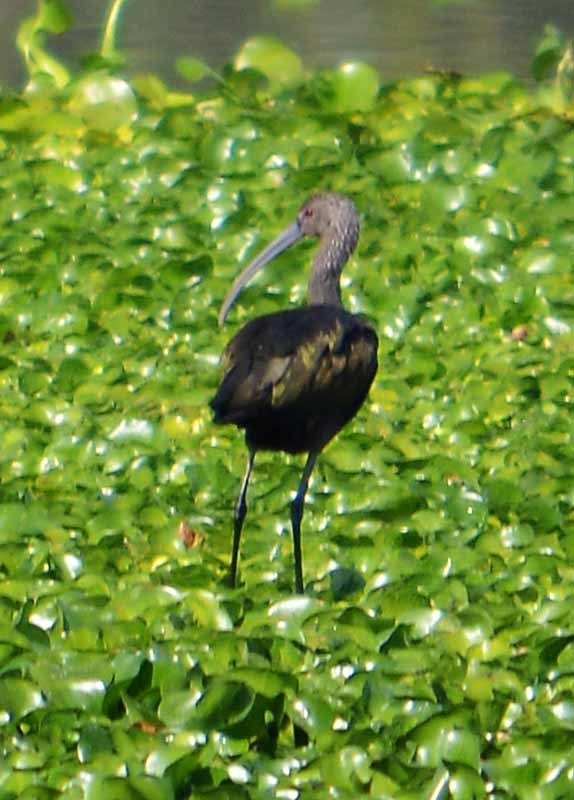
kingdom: Animalia
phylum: Chordata
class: Aves
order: Pelecaniformes
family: Threskiornithidae
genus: Plegadis
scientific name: Plegadis chihi
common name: White-faced ibis
